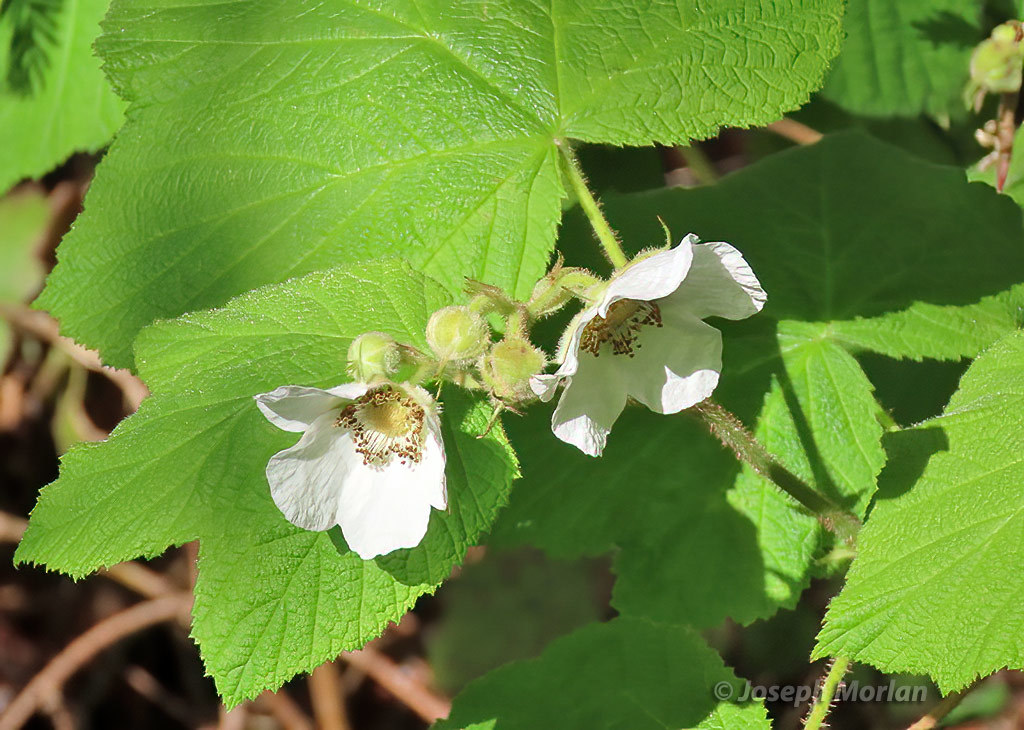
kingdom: Plantae
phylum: Tracheophyta
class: Magnoliopsida
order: Rosales
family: Rosaceae
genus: Rubus
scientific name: Rubus parviflorus
